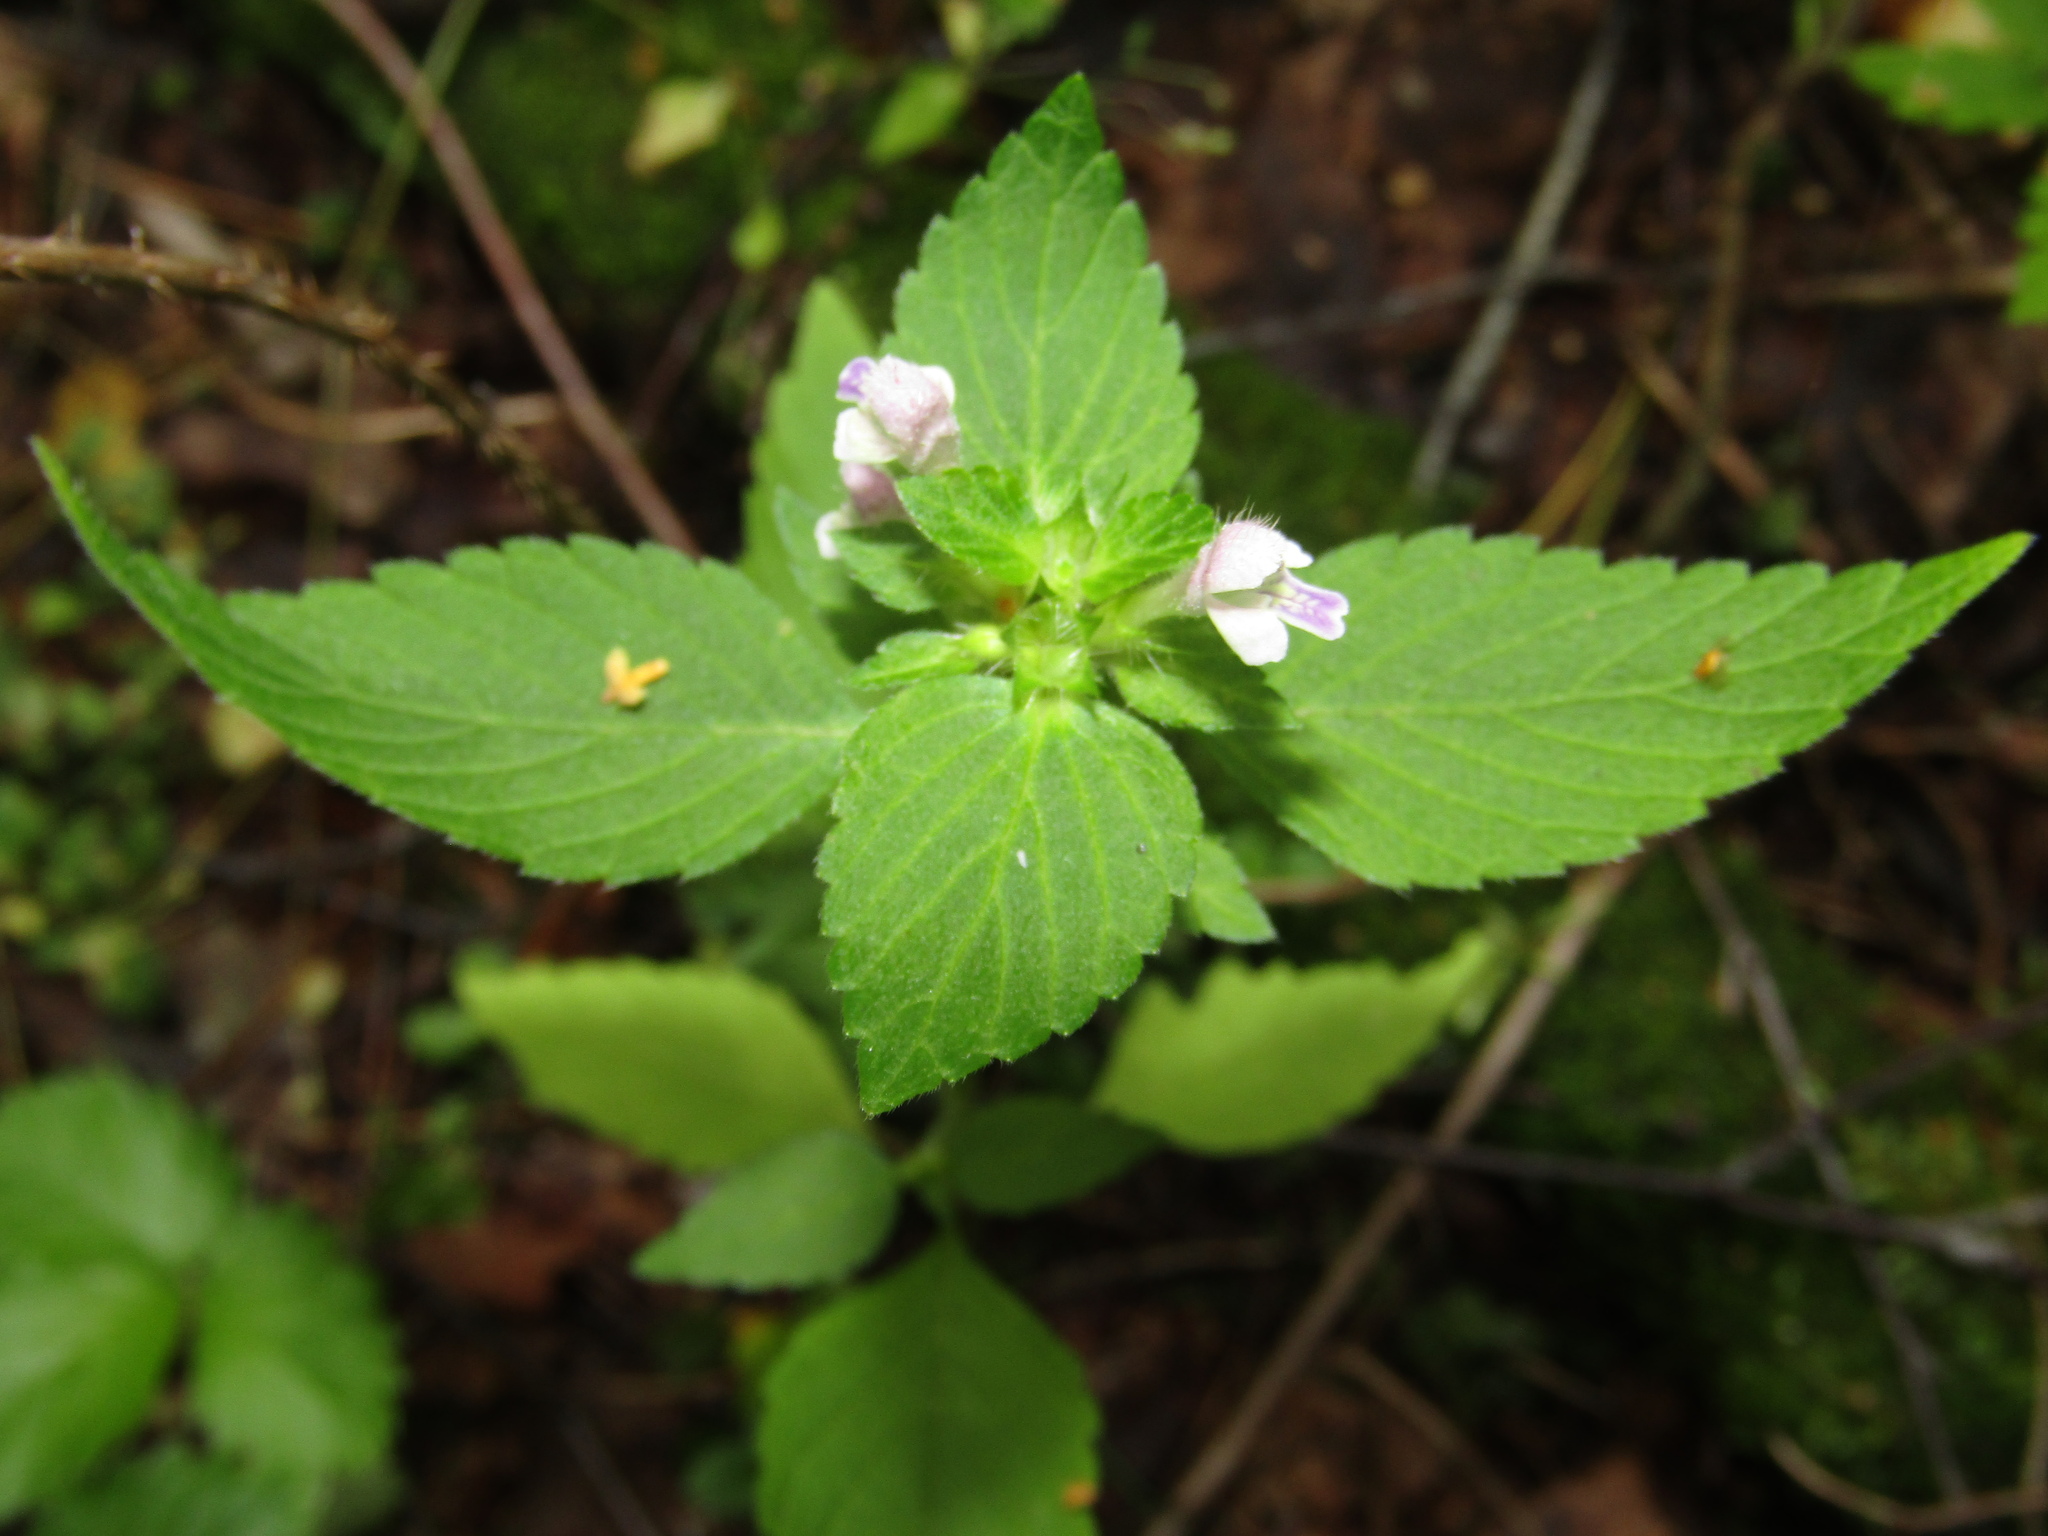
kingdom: Plantae
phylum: Tracheophyta
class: Magnoliopsida
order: Lamiales
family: Lamiaceae
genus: Galeopsis
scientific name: Galeopsis bifida
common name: Bifid hemp-nettle
